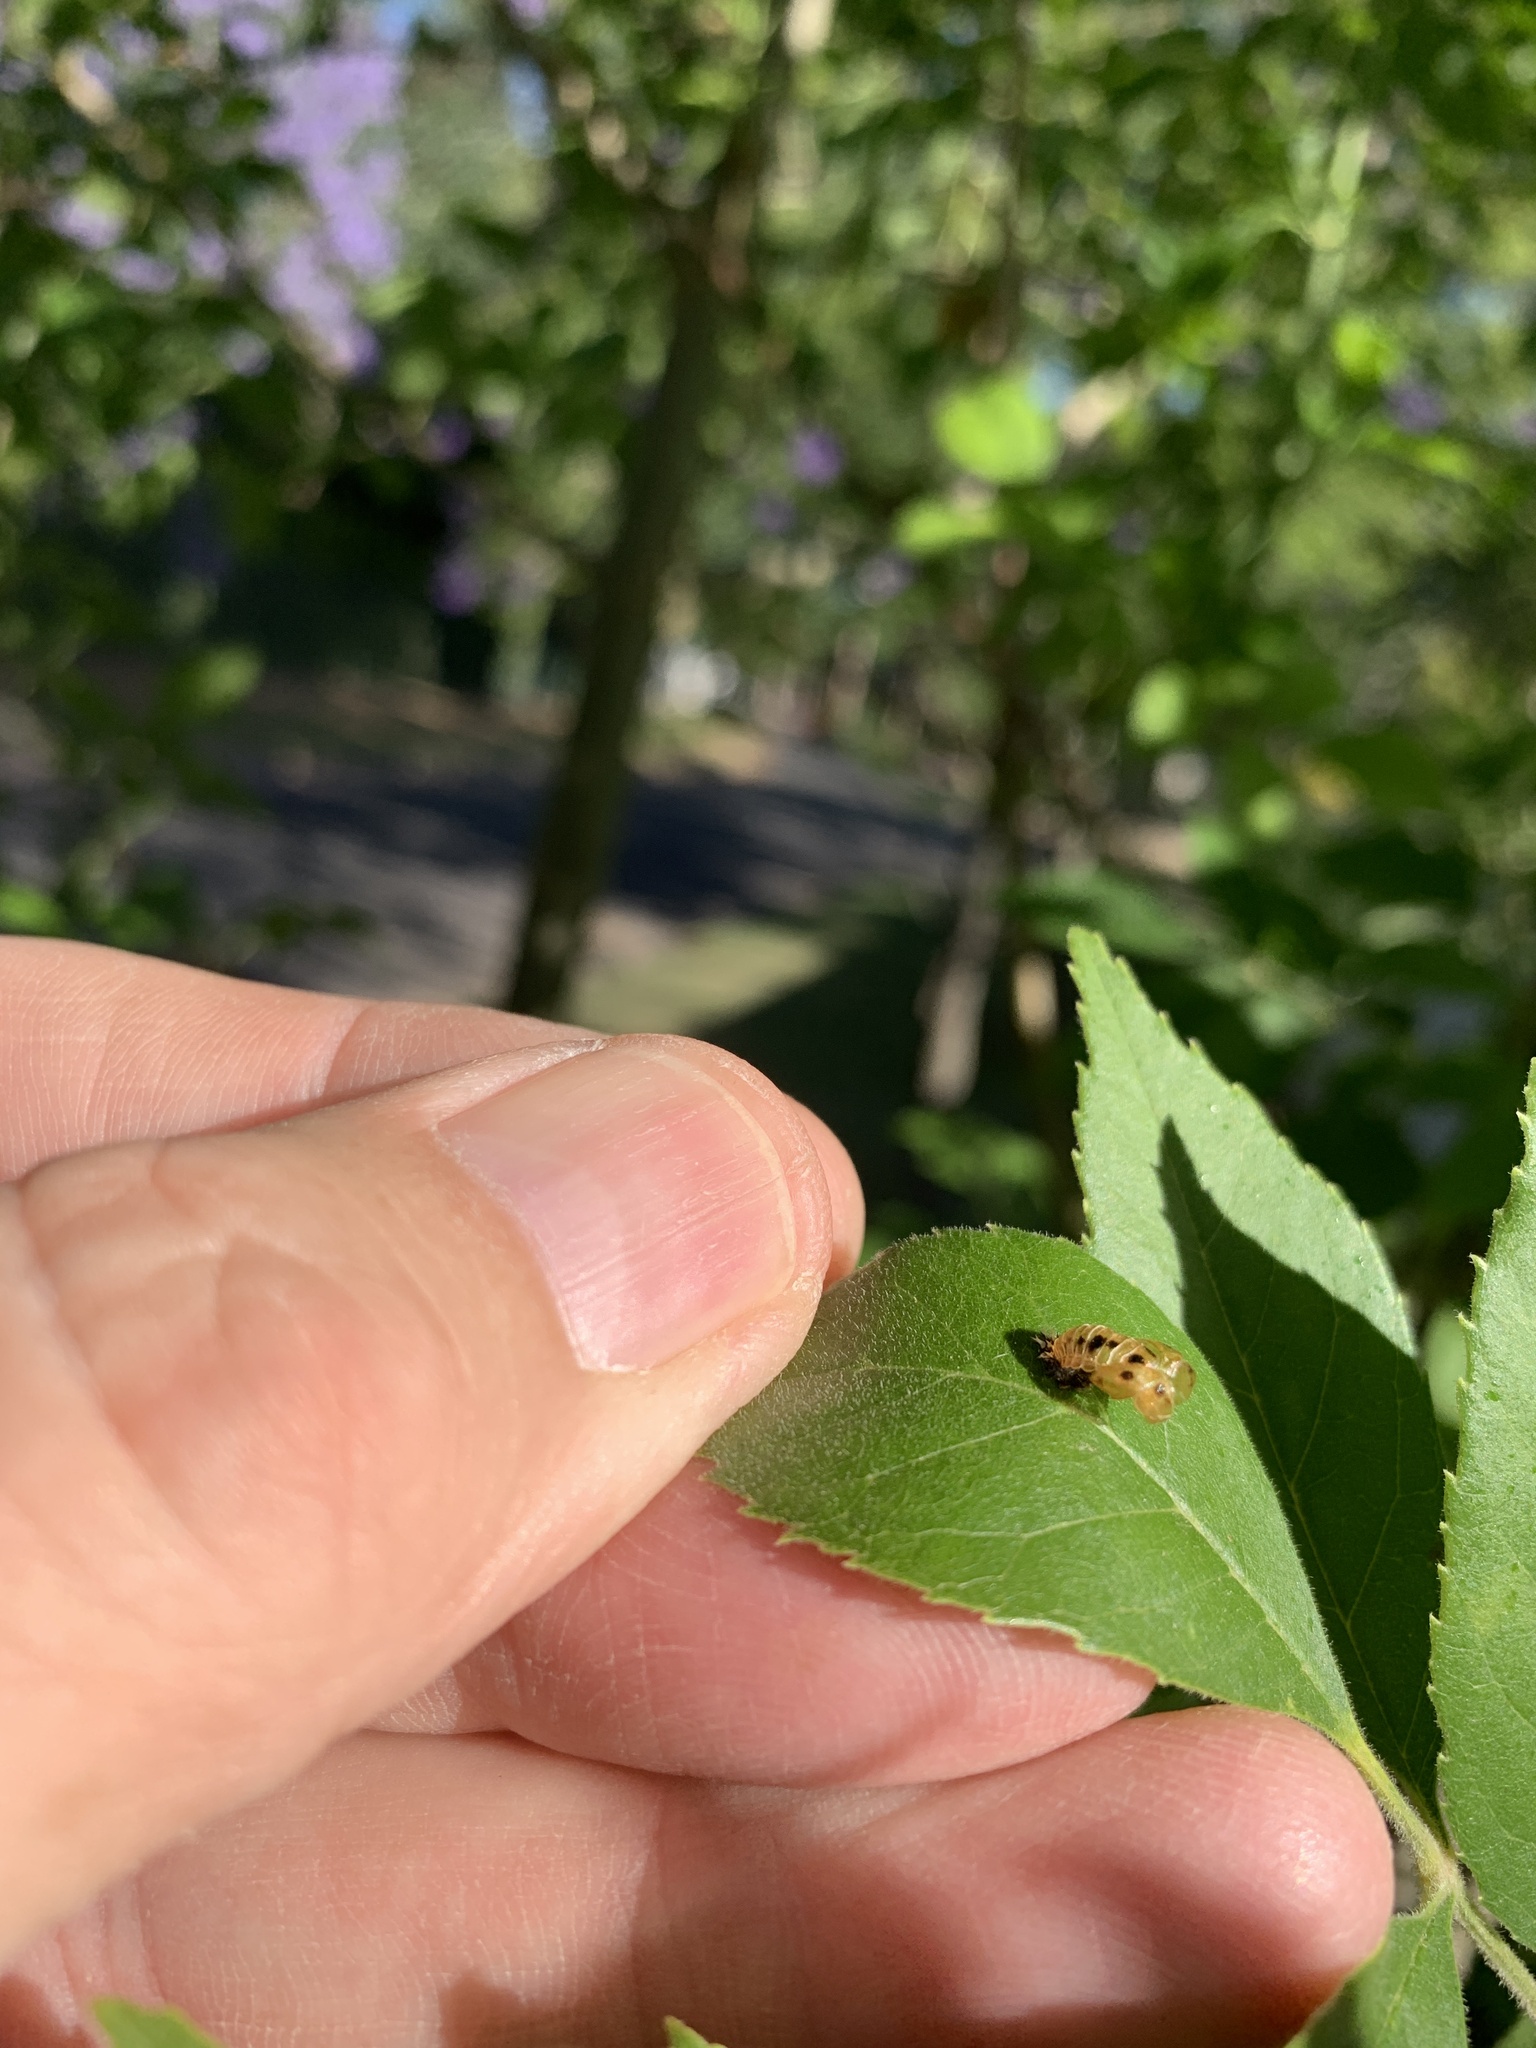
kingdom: Animalia
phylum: Arthropoda
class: Insecta
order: Coleoptera
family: Coccinellidae
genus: Harmonia
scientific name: Harmonia axyridis
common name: Harlequin ladybird
